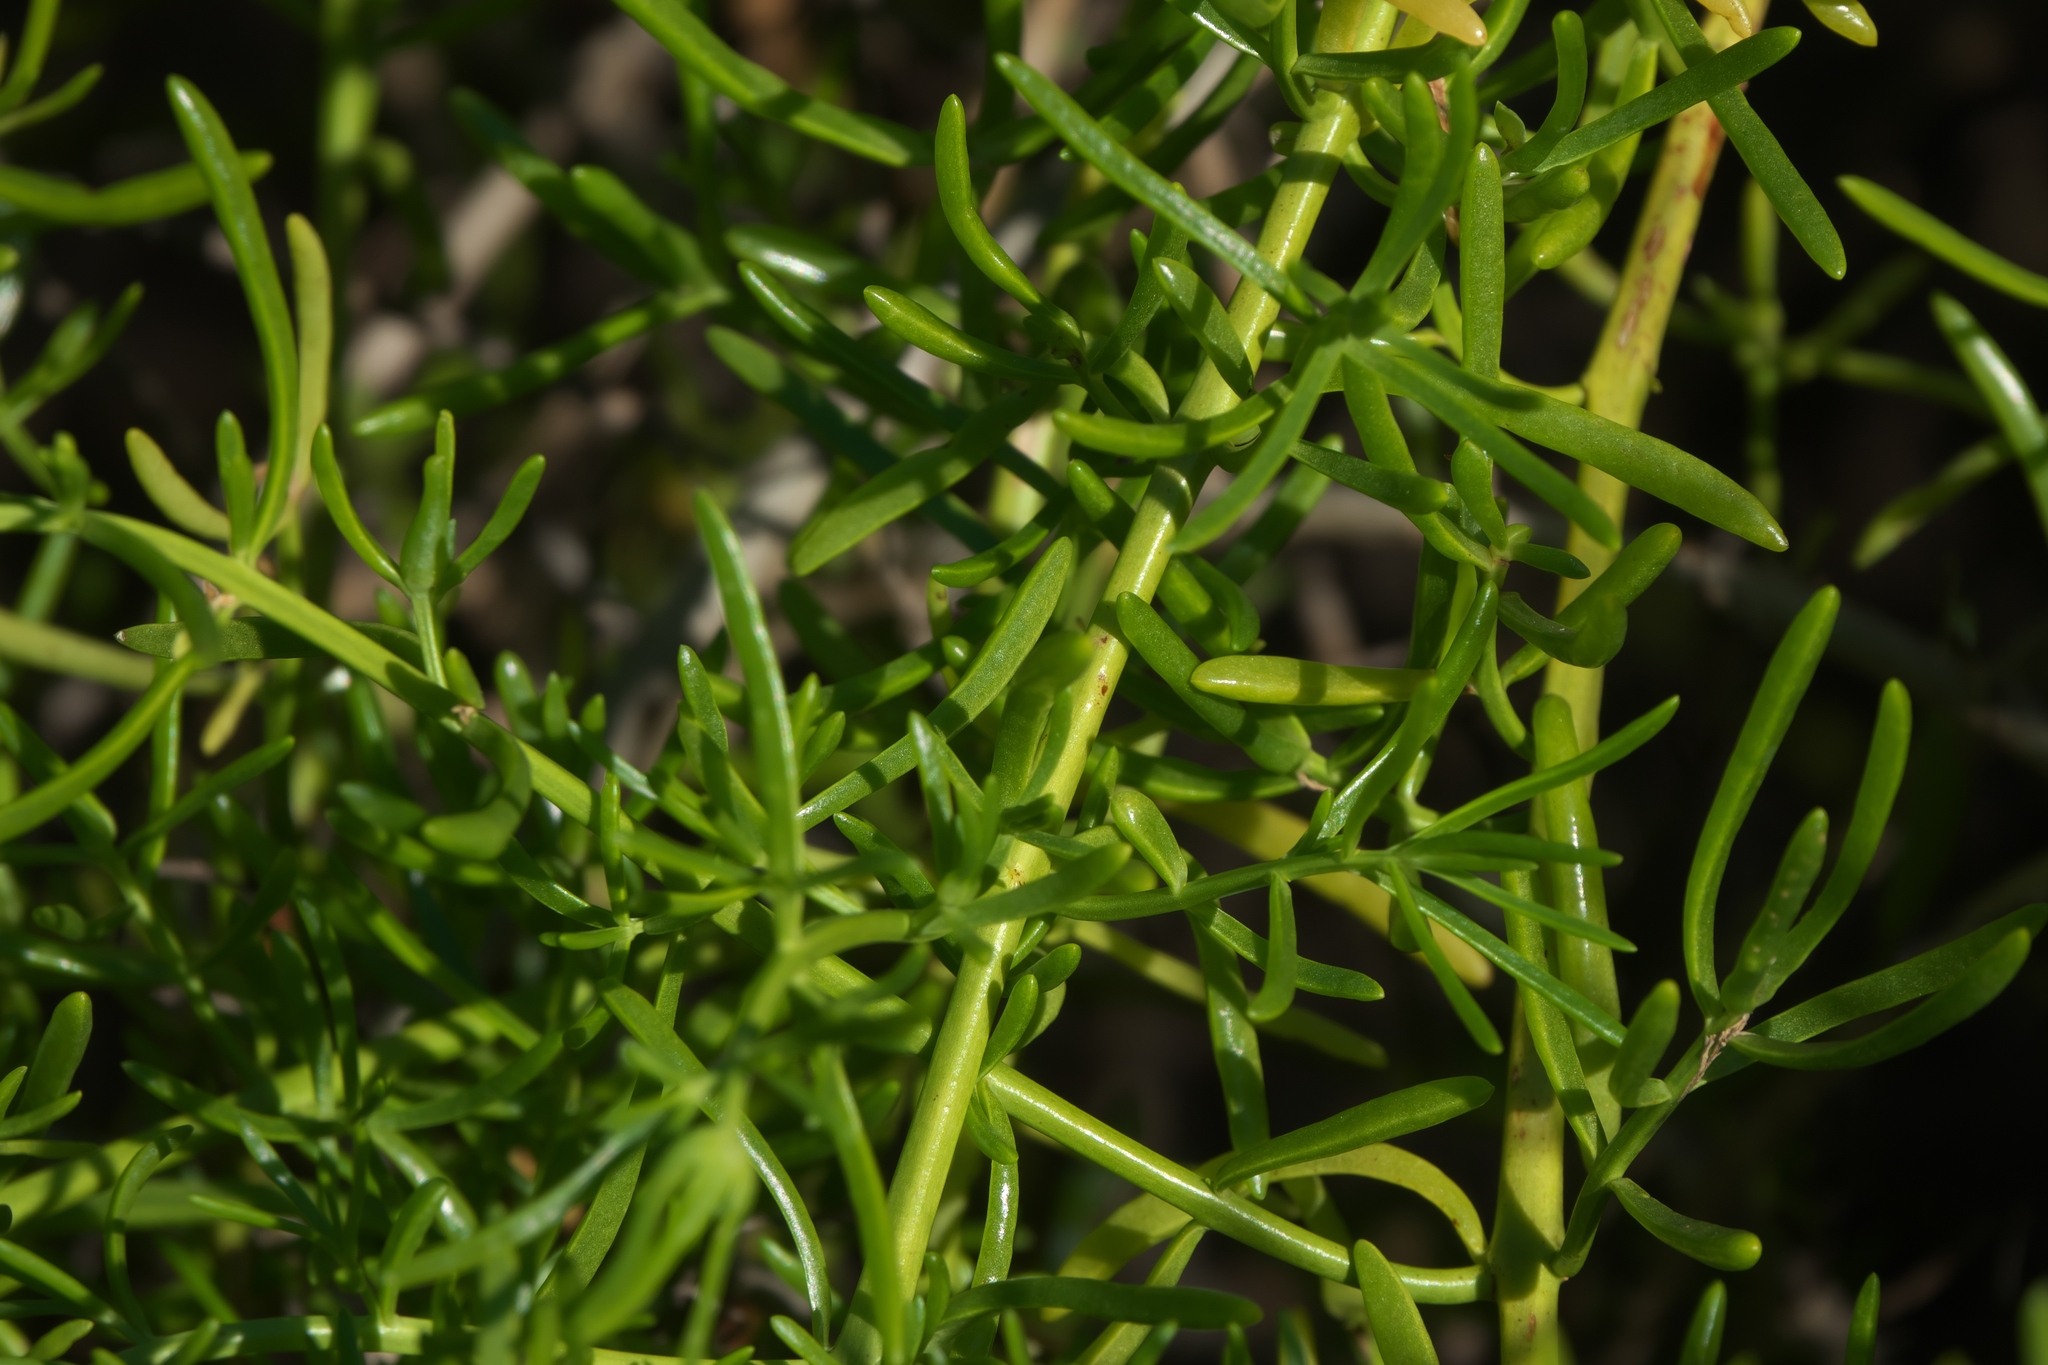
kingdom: Plantae
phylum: Tracheophyta
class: Magnoliopsida
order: Brassicales
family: Bataceae
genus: Batis
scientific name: Batis maritima
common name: Turtleweed
